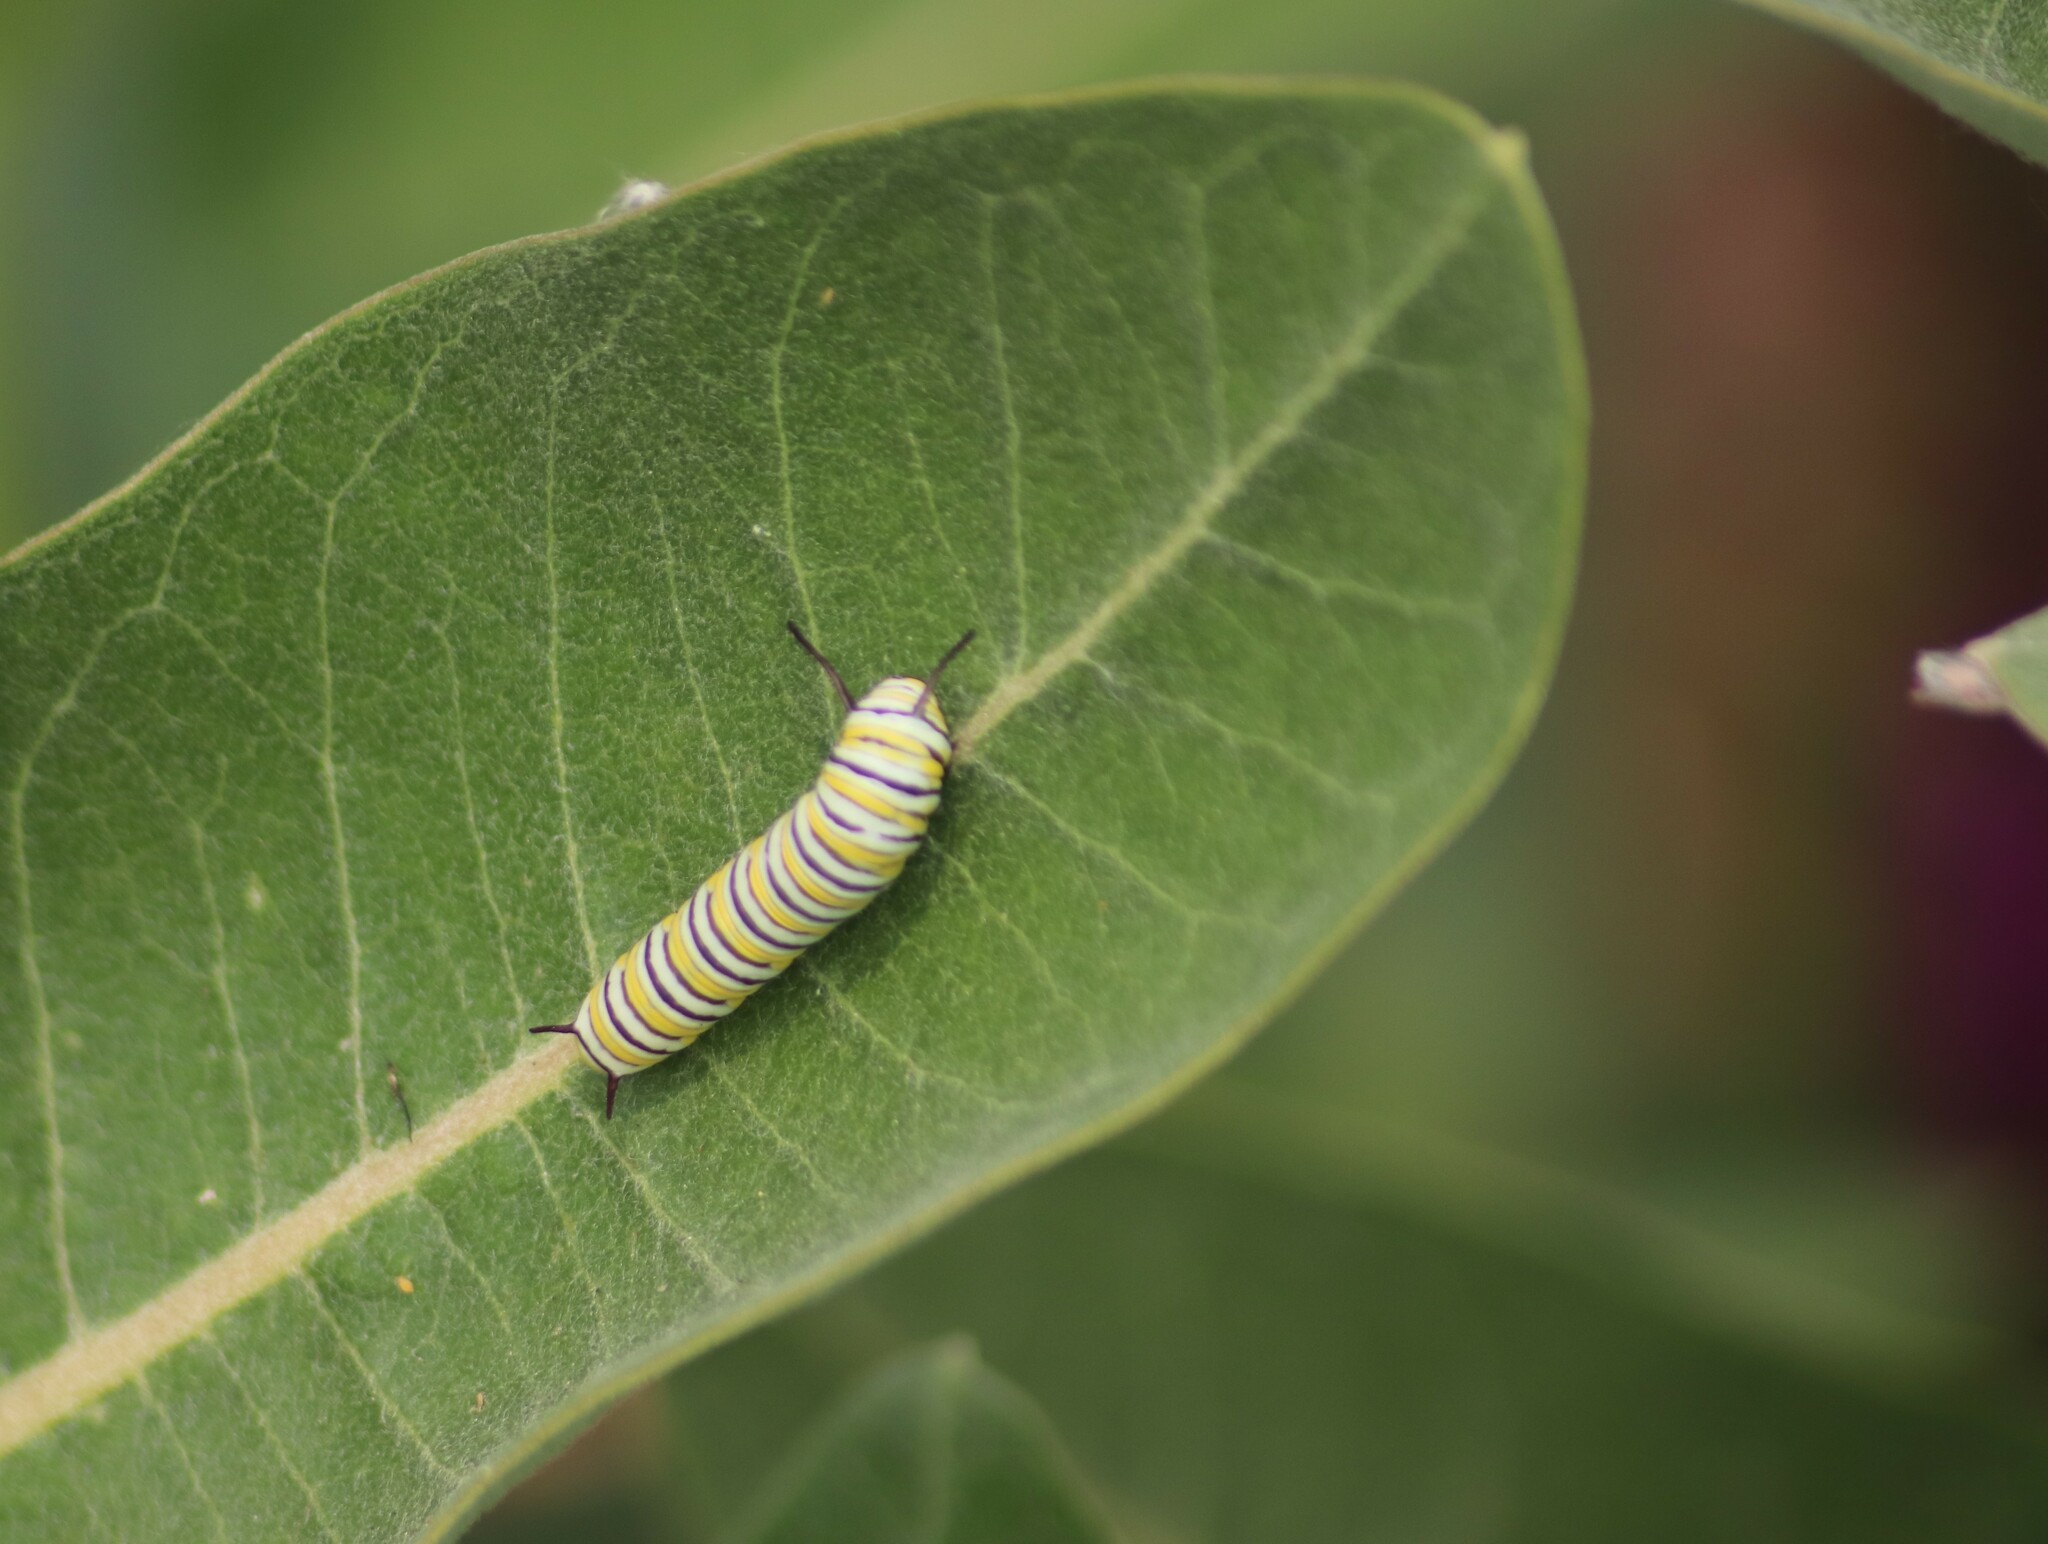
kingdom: Animalia
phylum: Arthropoda
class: Insecta
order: Lepidoptera
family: Nymphalidae
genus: Danaus
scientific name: Danaus plexippus
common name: Monarch
